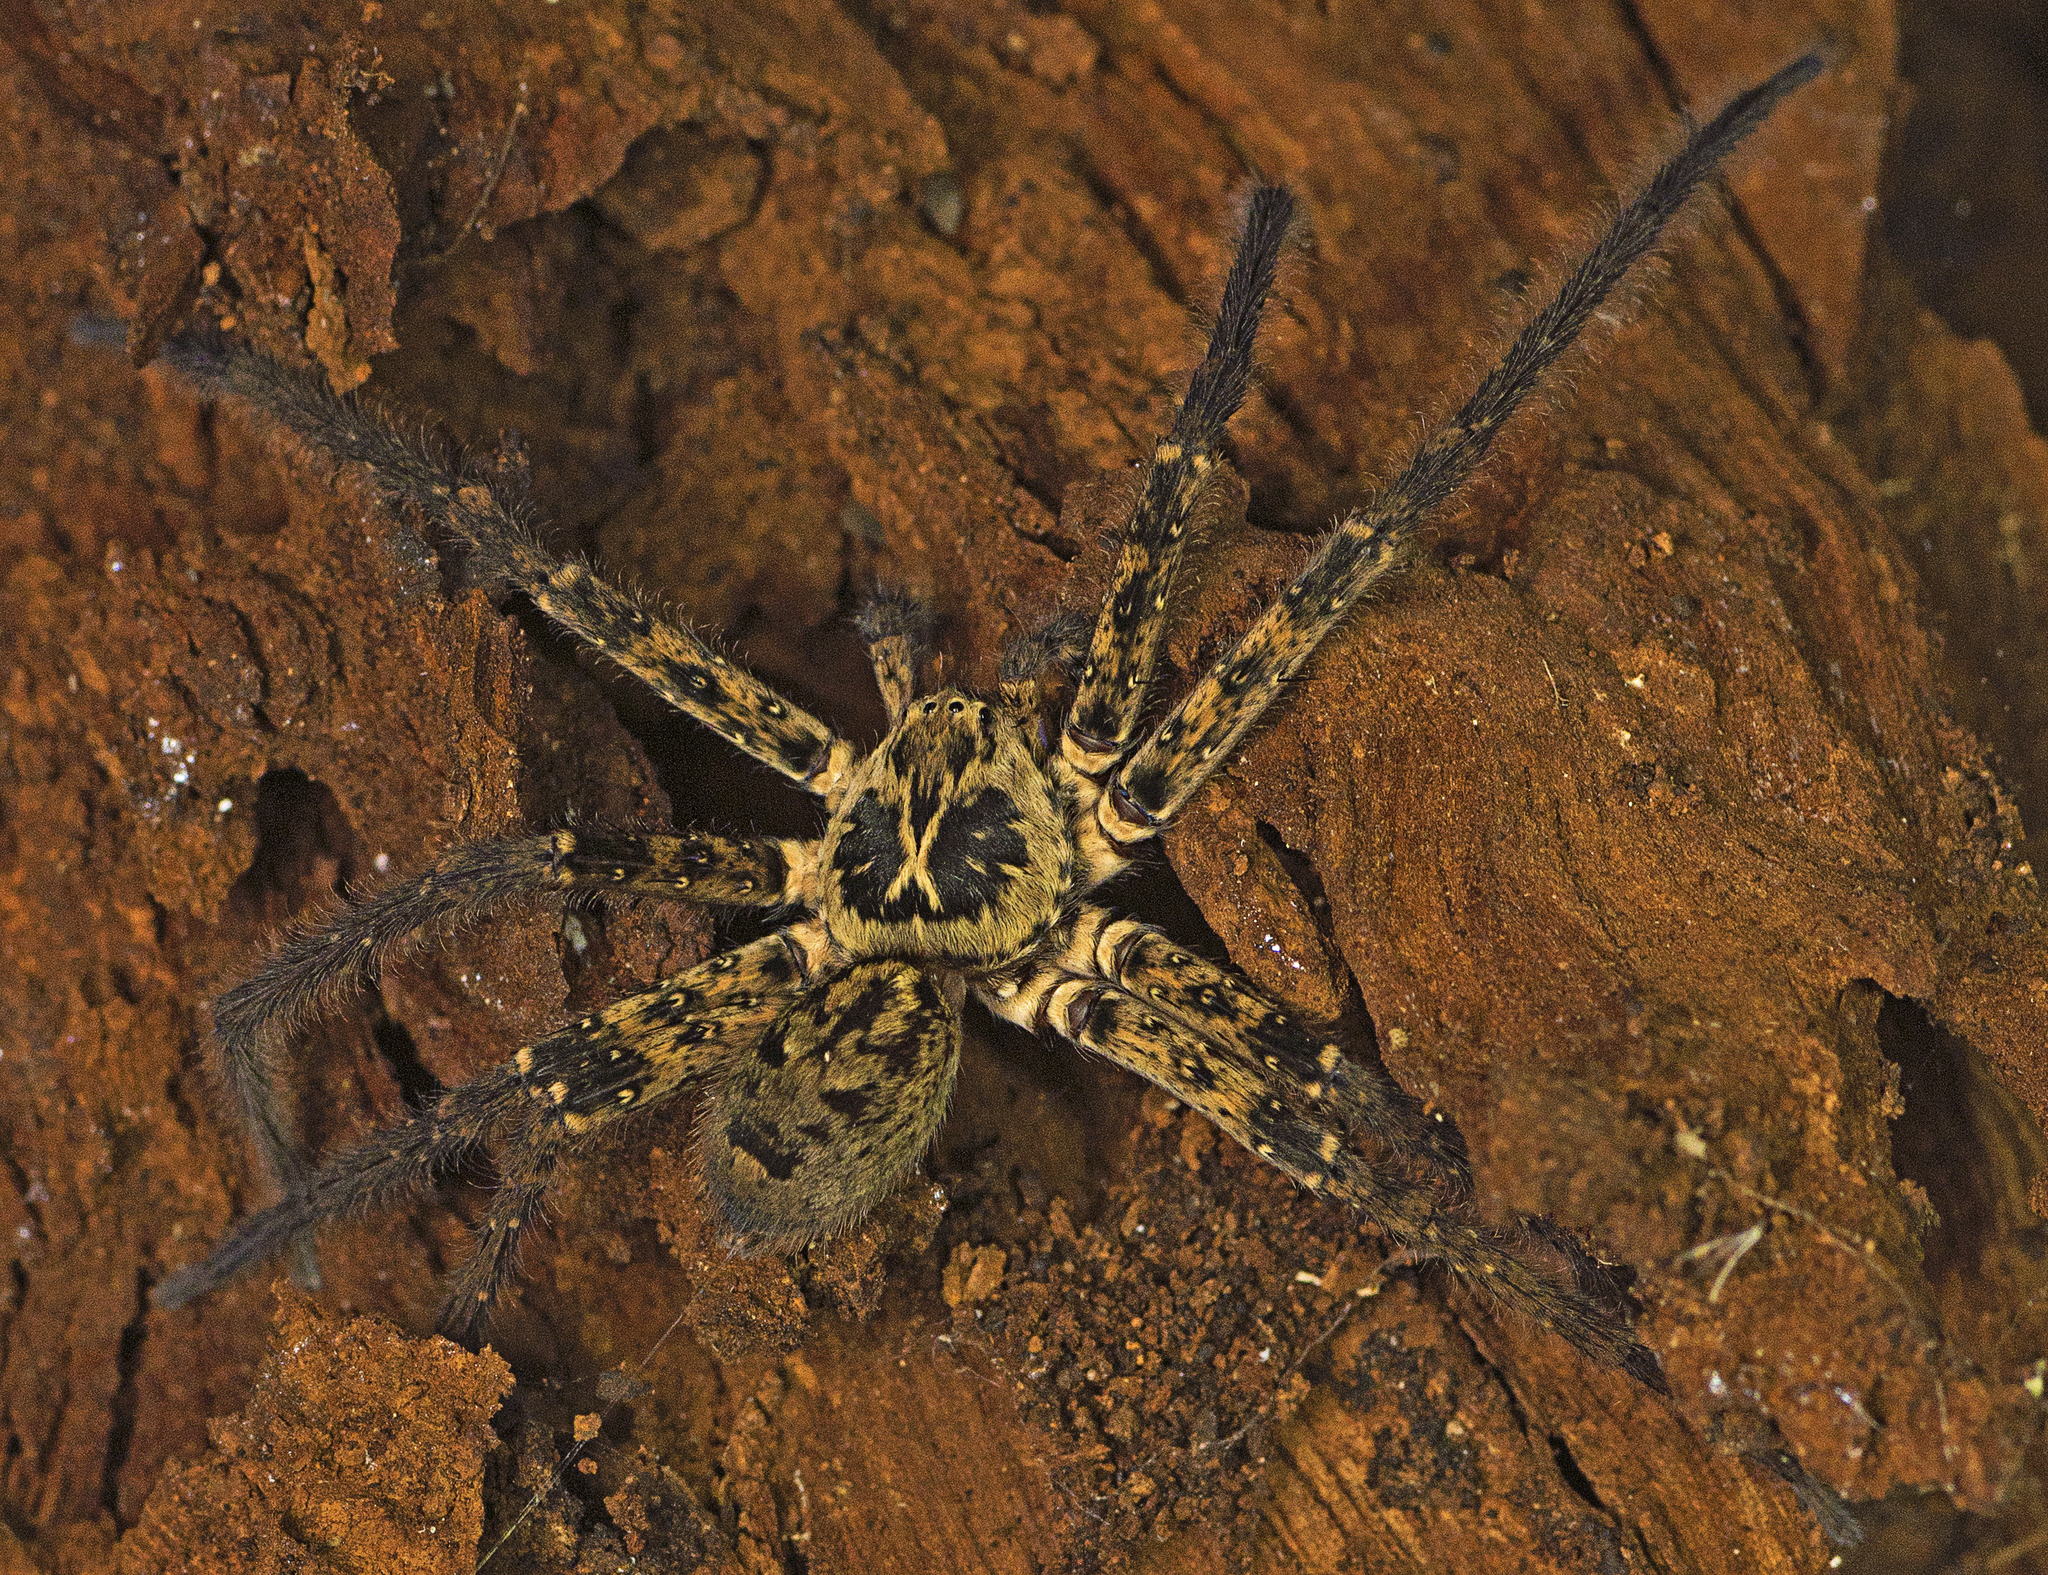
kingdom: Animalia
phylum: Arthropoda
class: Arachnida
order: Araneae
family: Sparassidae
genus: Heteropoda
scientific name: Heteropoda hillerae
